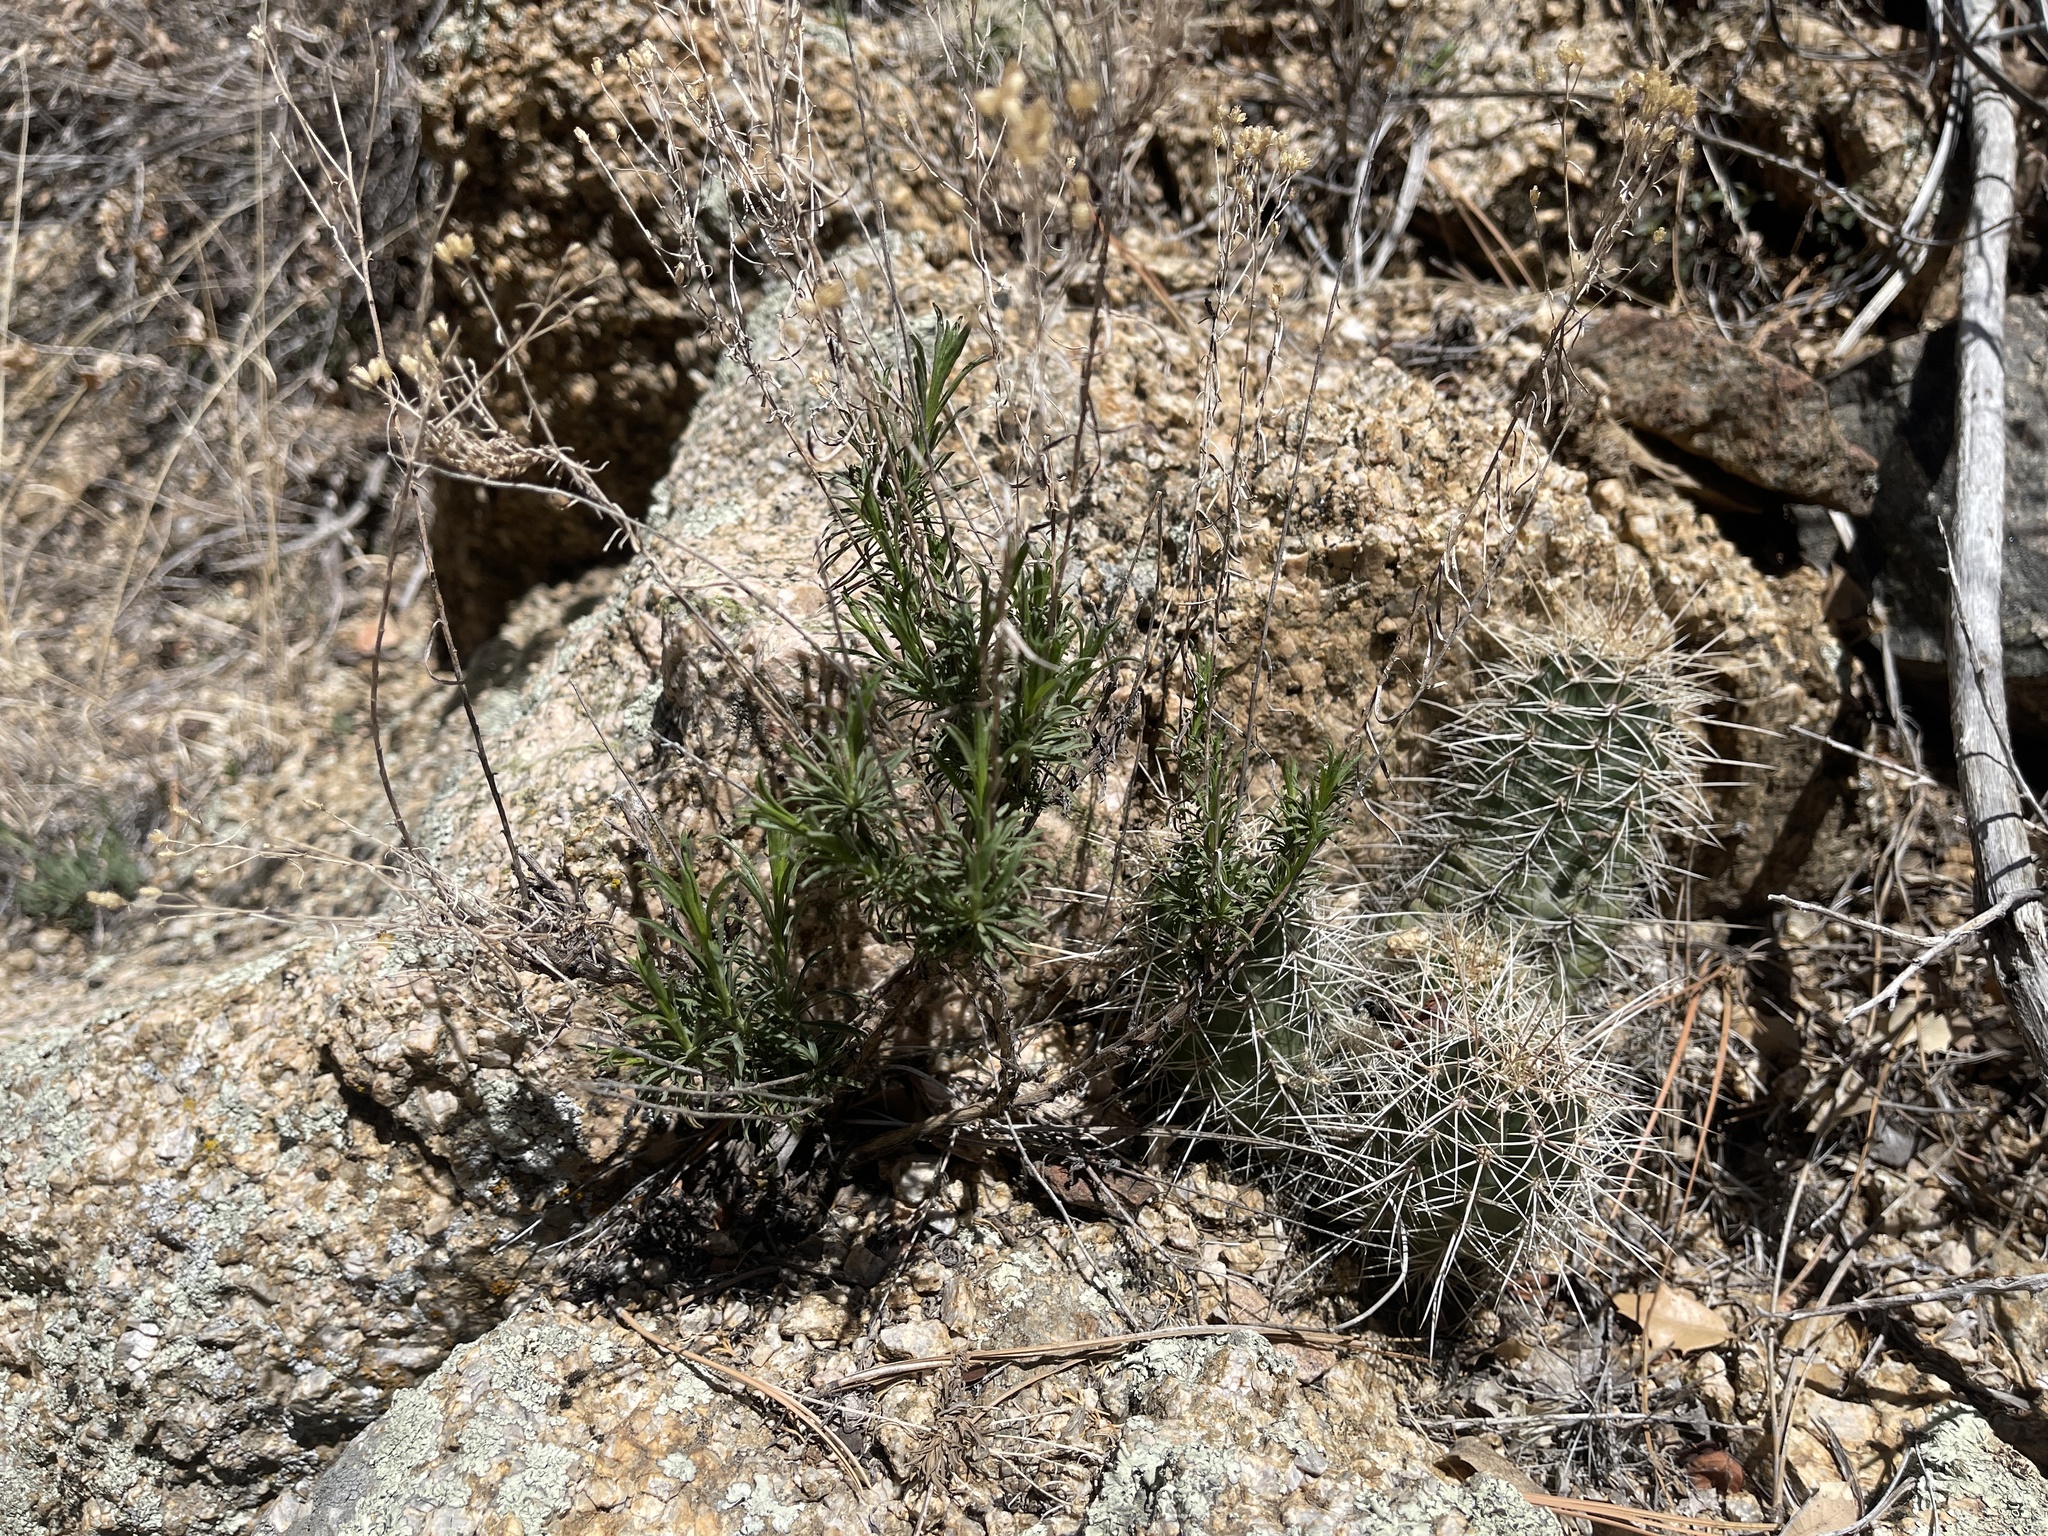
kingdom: Plantae
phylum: Tracheophyta
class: Magnoliopsida
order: Asterales
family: Asteraceae
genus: Gutierrezia
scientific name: Gutierrezia sarothrae
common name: Broom snakeweed
